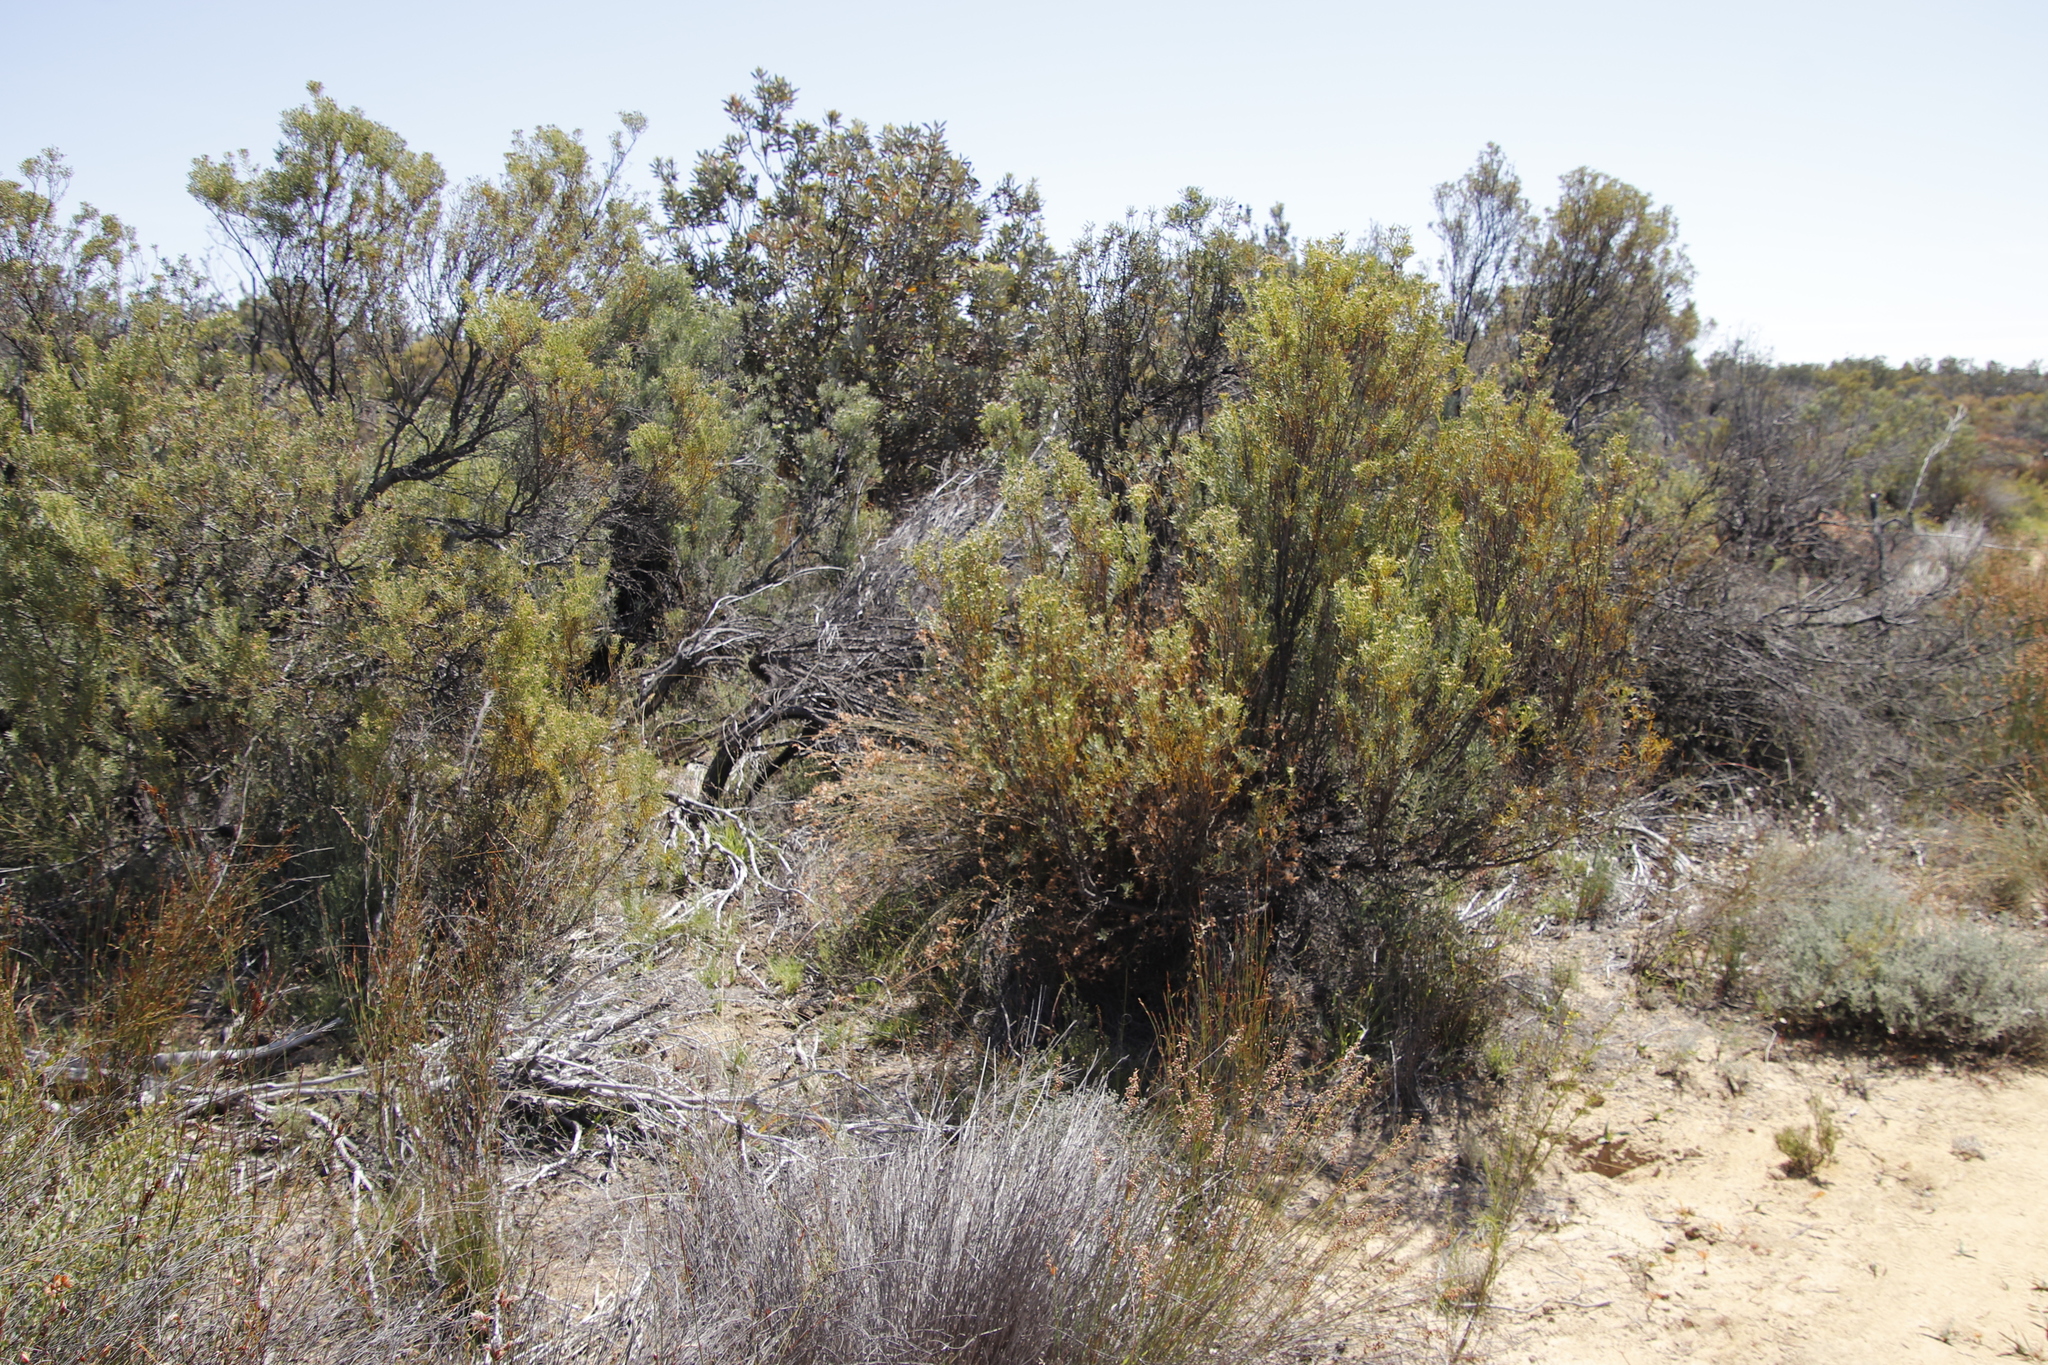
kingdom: Plantae
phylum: Tracheophyta
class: Magnoliopsida
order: Proteales
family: Proteaceae
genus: Leucadendron
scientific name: Leucadendron pubescens
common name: Grey conebush
